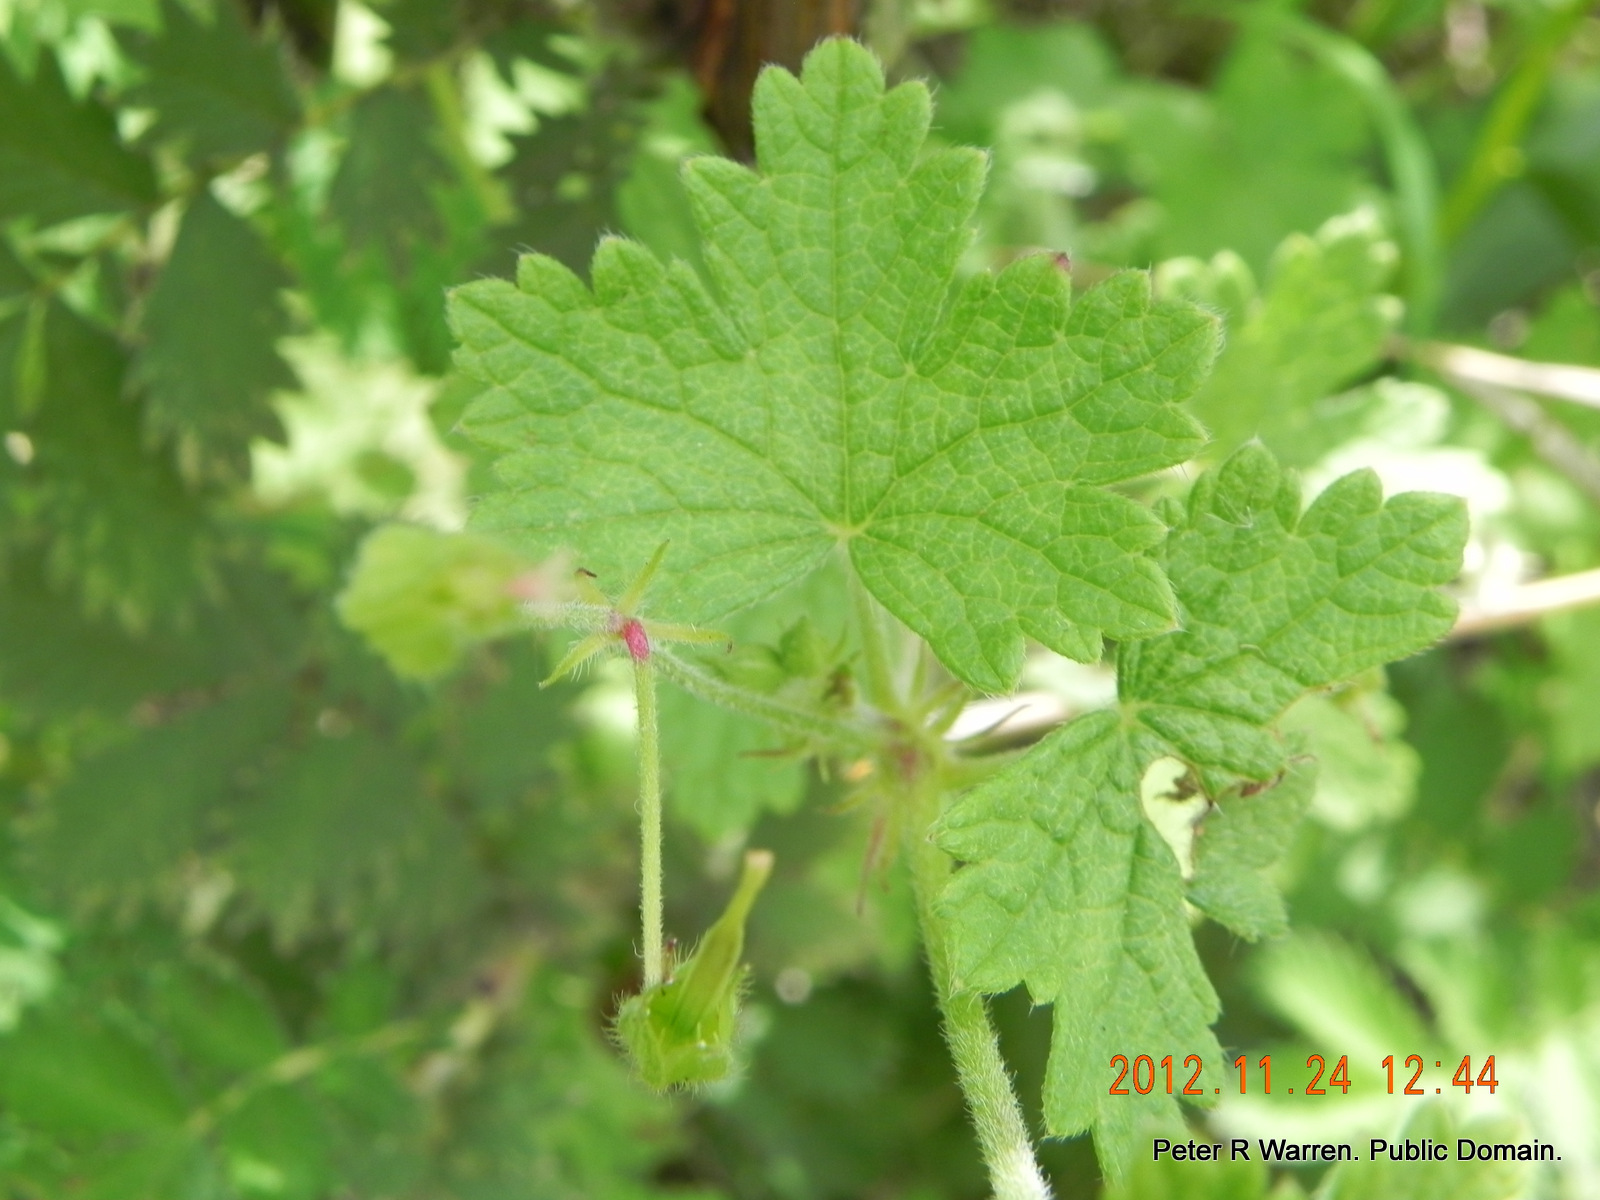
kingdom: Plantae
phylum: Tracheophyta
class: Magnoliopsida
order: Geraniales
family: Geraniaceae
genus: Geranium
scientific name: Geranium wakkerstroomianum
